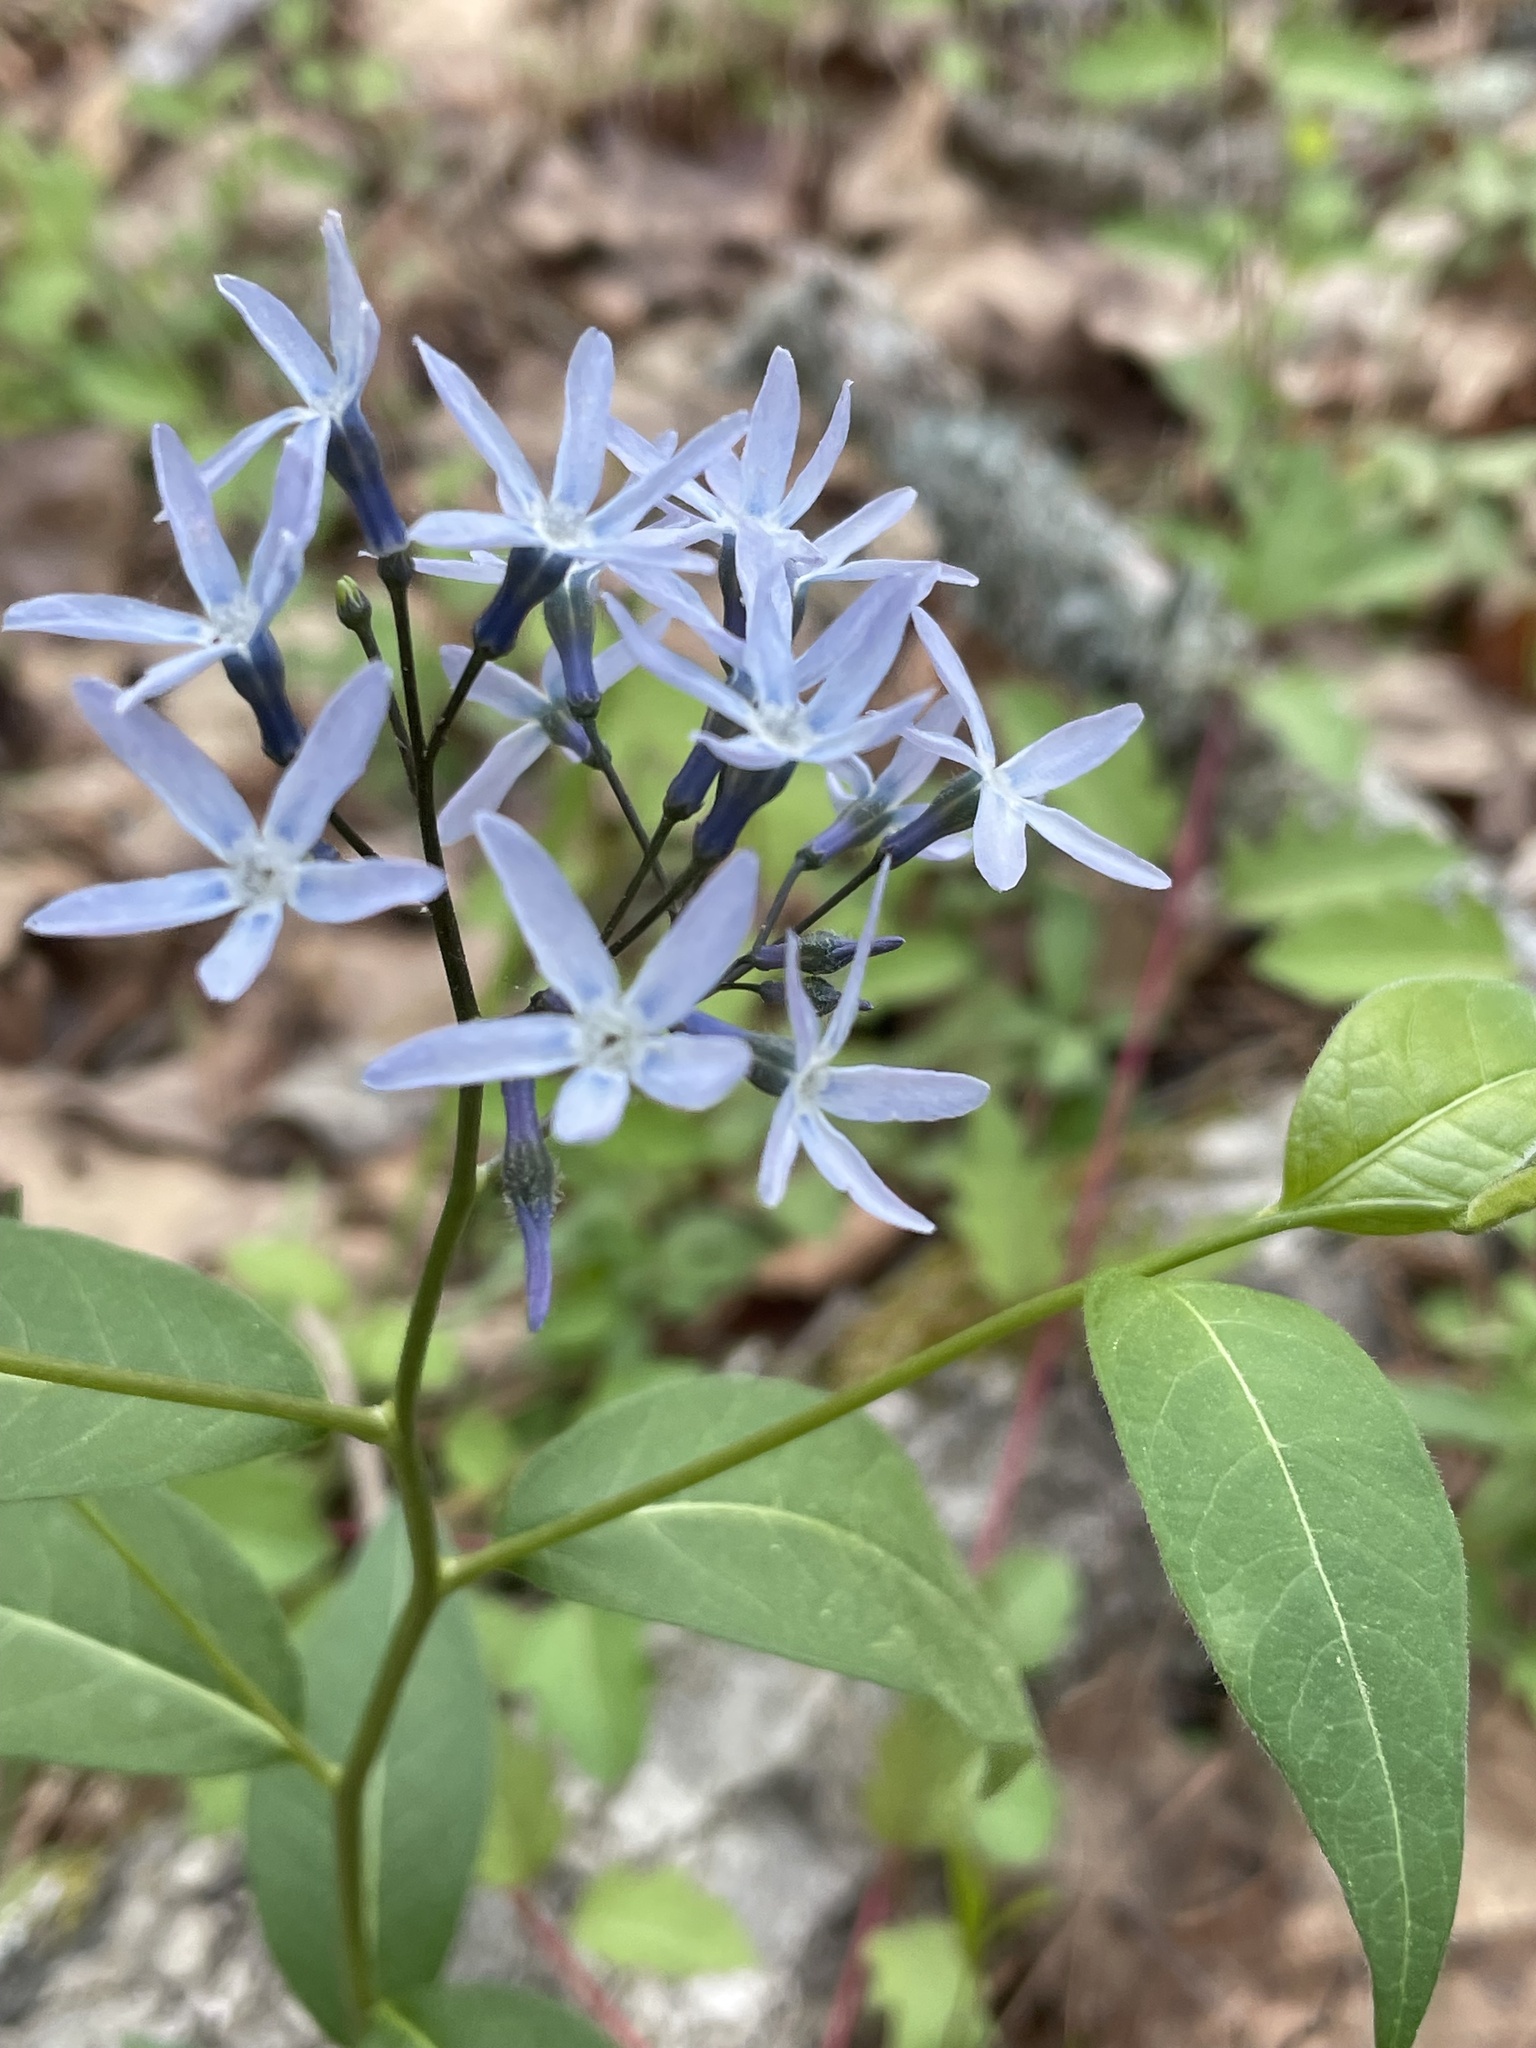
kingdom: Plantae
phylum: Tracheophyta
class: Magnoliopsida
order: Gentianales
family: Apocynaceae
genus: Amsonia
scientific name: Amsonia tabernaemontana
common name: Texas-star
